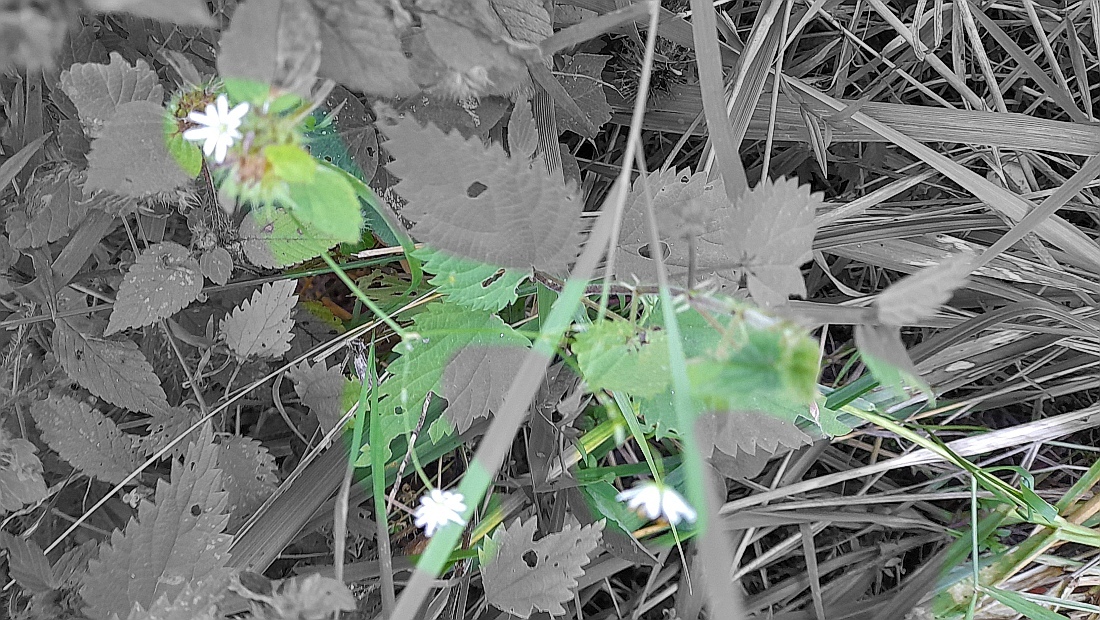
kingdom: Plantae
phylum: Tracheophyta
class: Magnoliopsida
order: Caryophyllales
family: Caryophyllaceae
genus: Stellaria
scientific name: Stellaria graminea
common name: Grass-like starwort
